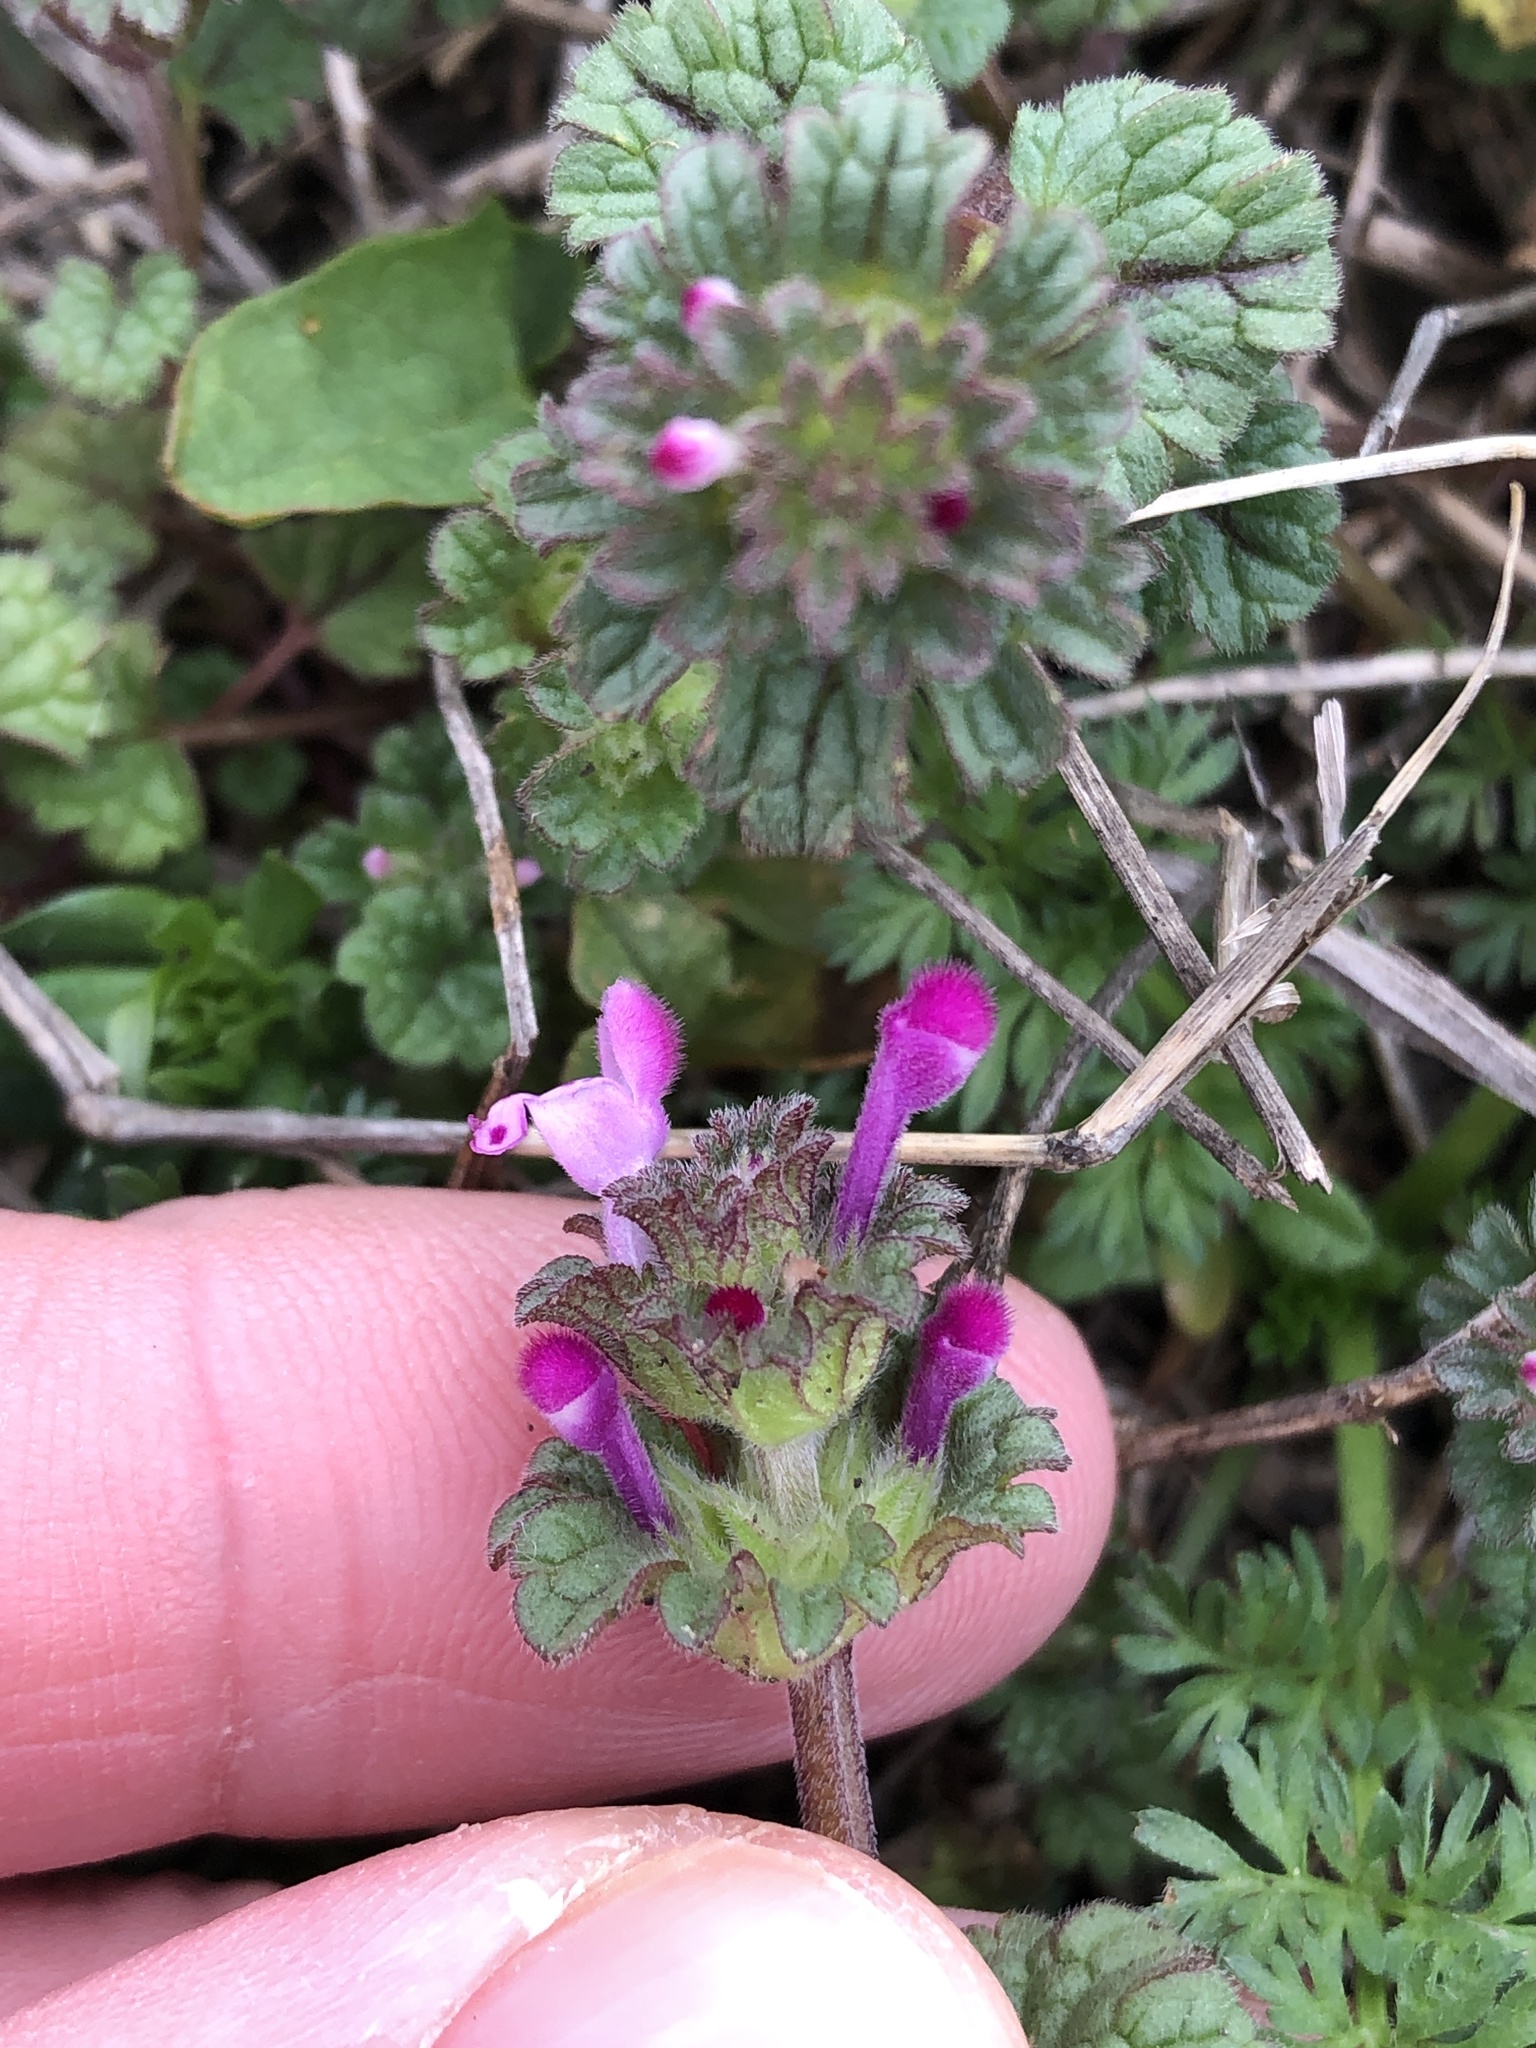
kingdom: Plantae
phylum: Tracheophyta
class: Magnoliopsida
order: Lamiales
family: Lamiaceae
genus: Lamium
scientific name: Lamium amplexicaule
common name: Henbit dead-nettle
